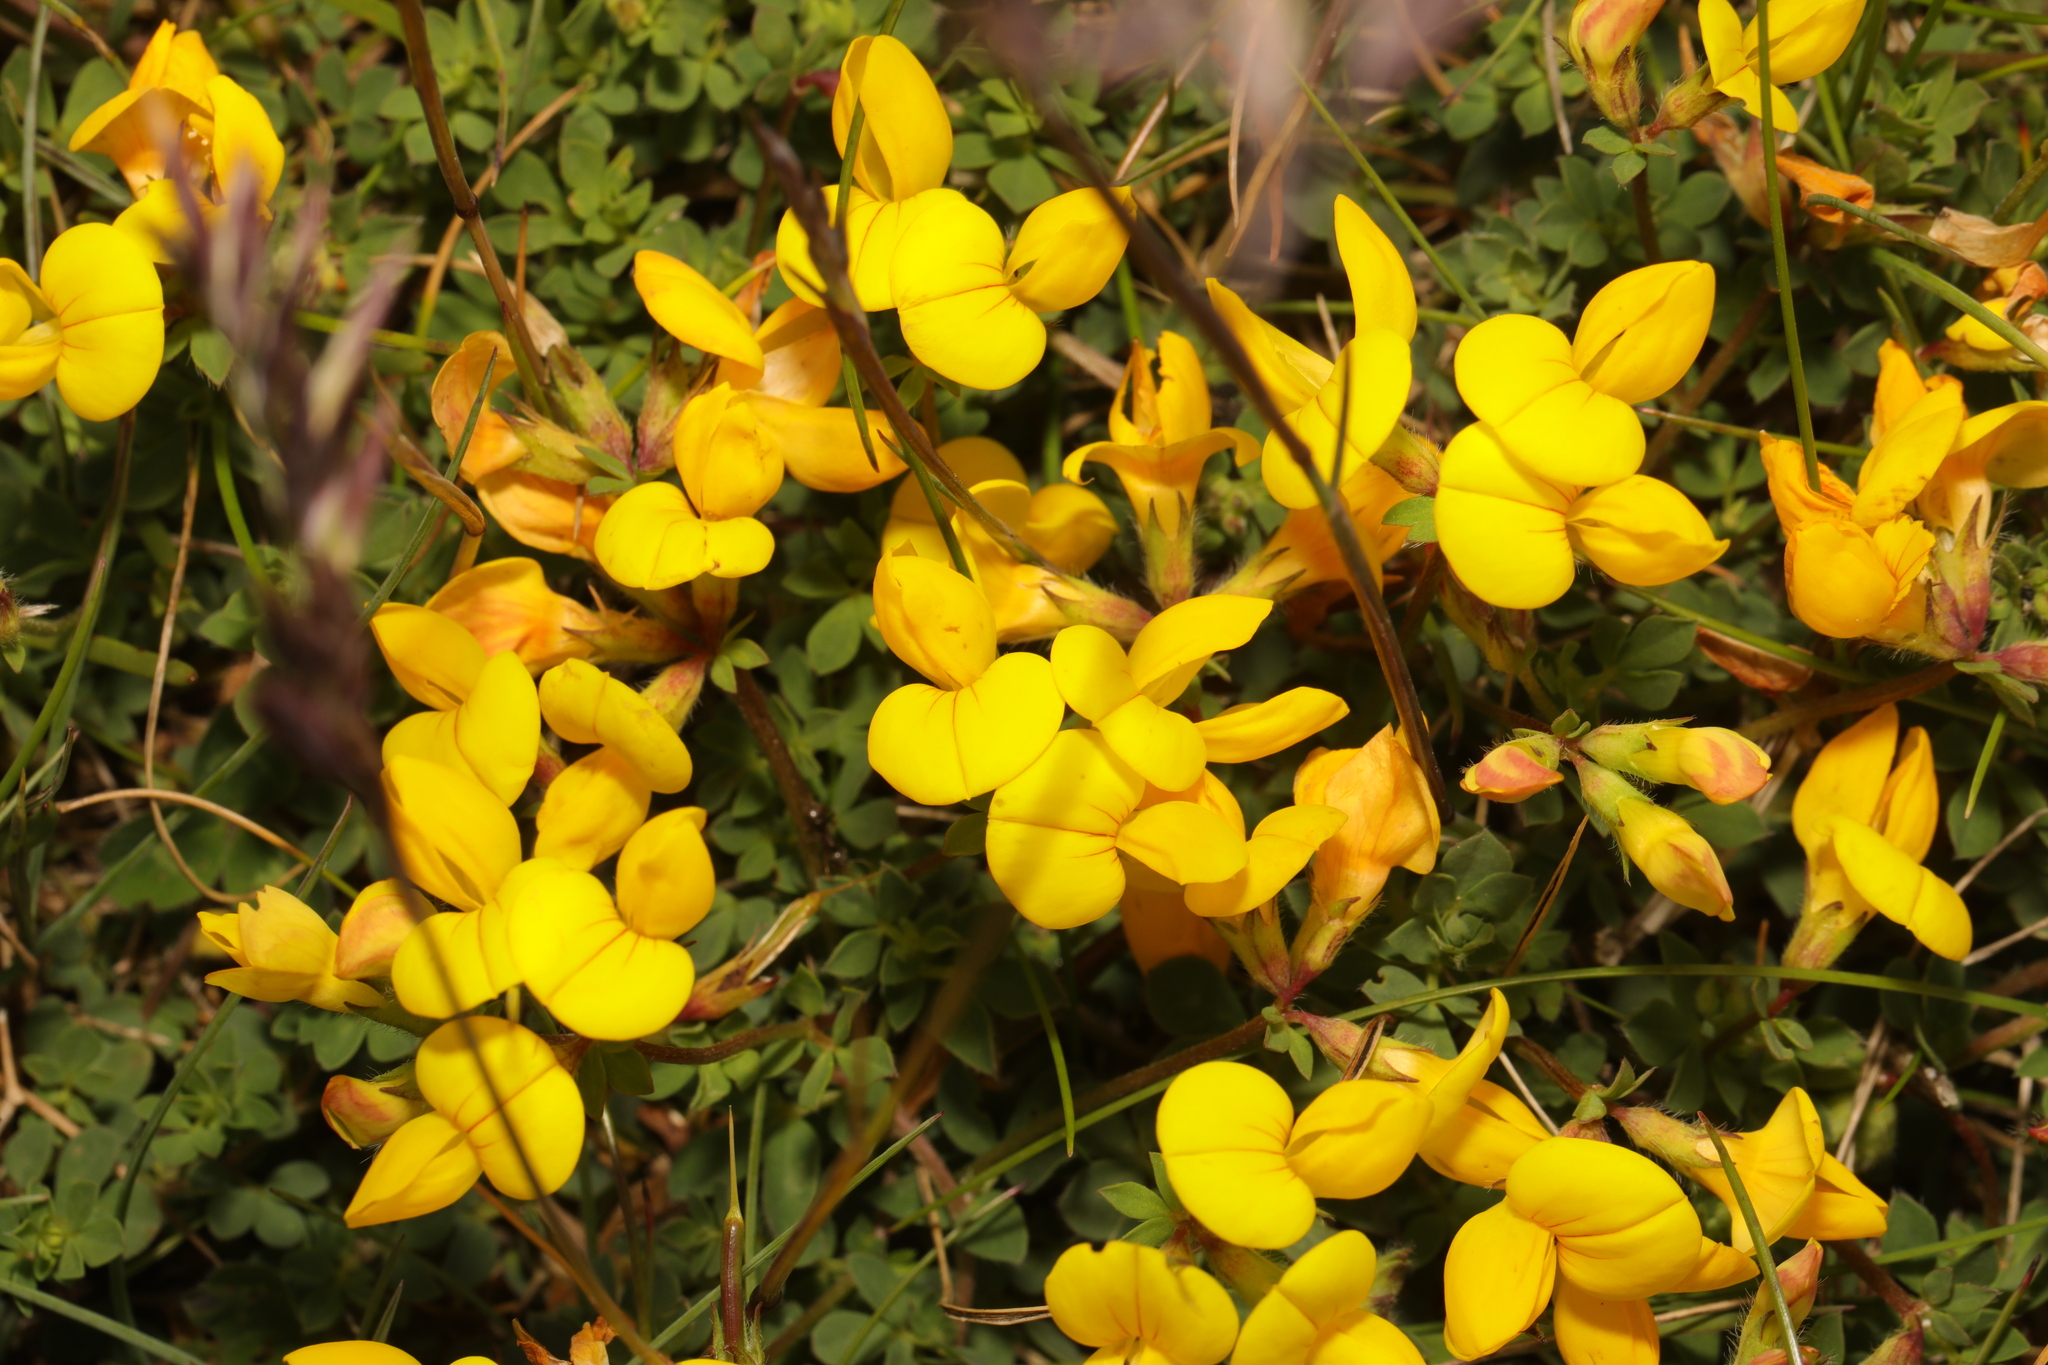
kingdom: Plantae
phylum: Tracheophyta
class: Magnoliopsida
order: Fabales
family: Fabaceae
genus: Lotus
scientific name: Lotus corniculatus
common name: Common bird's-foot-trefoil
